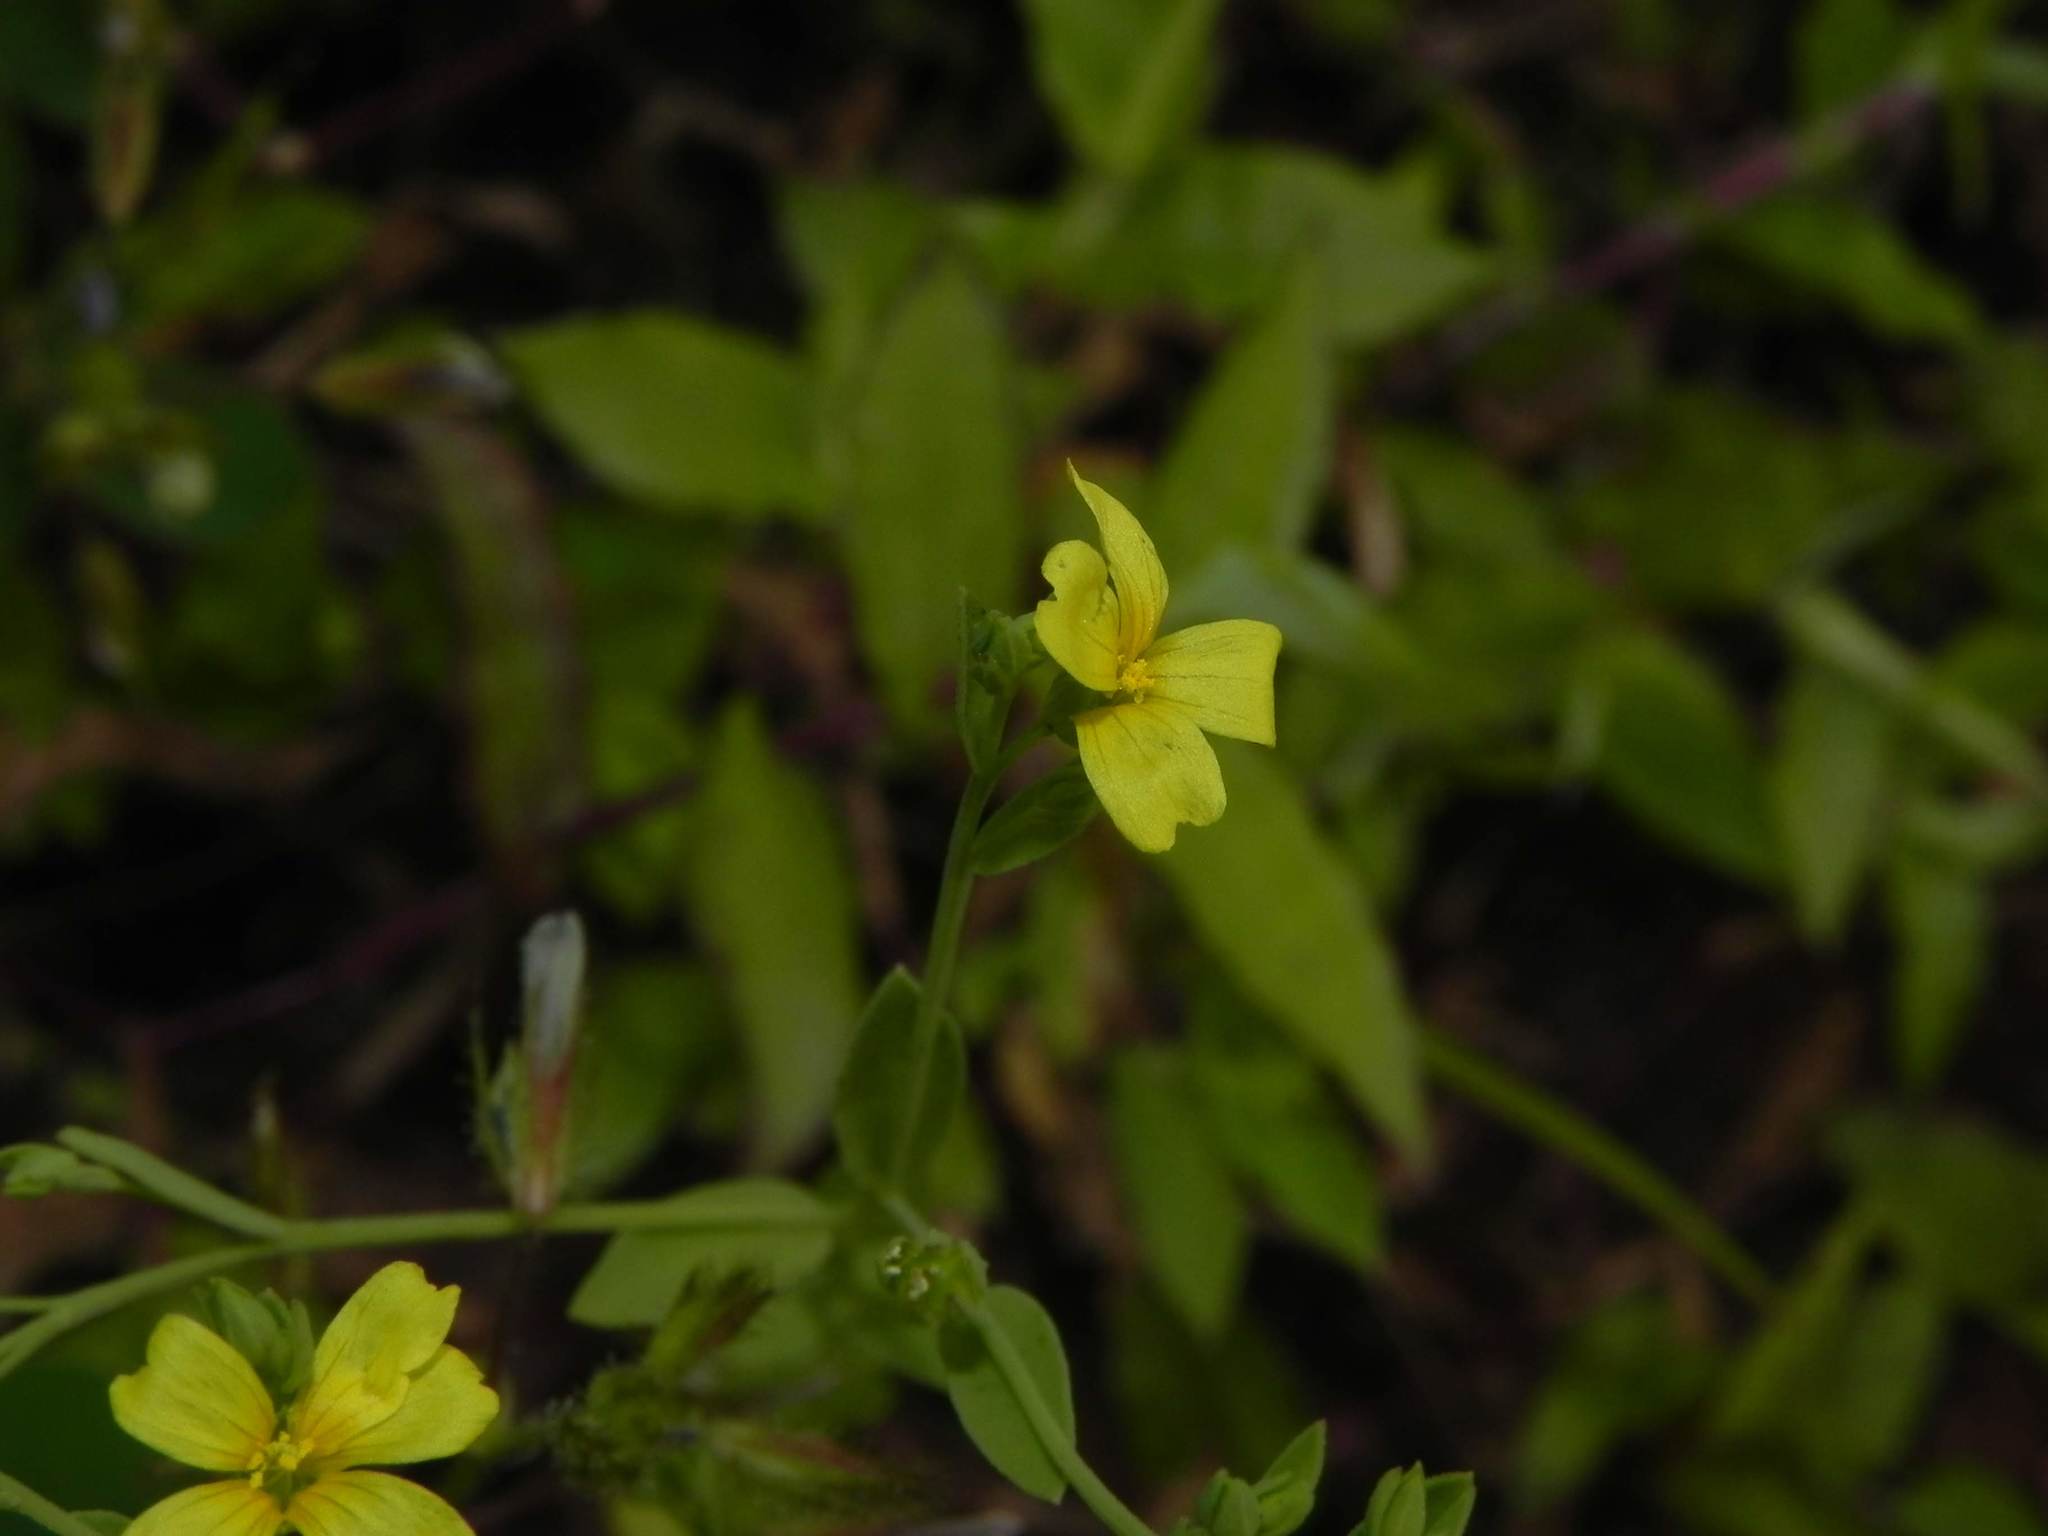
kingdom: Plantae
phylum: Tracheophyta
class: Magnoliopsida
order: Malpighiales
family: Linaceae
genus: Linum
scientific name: Linum mysorense
